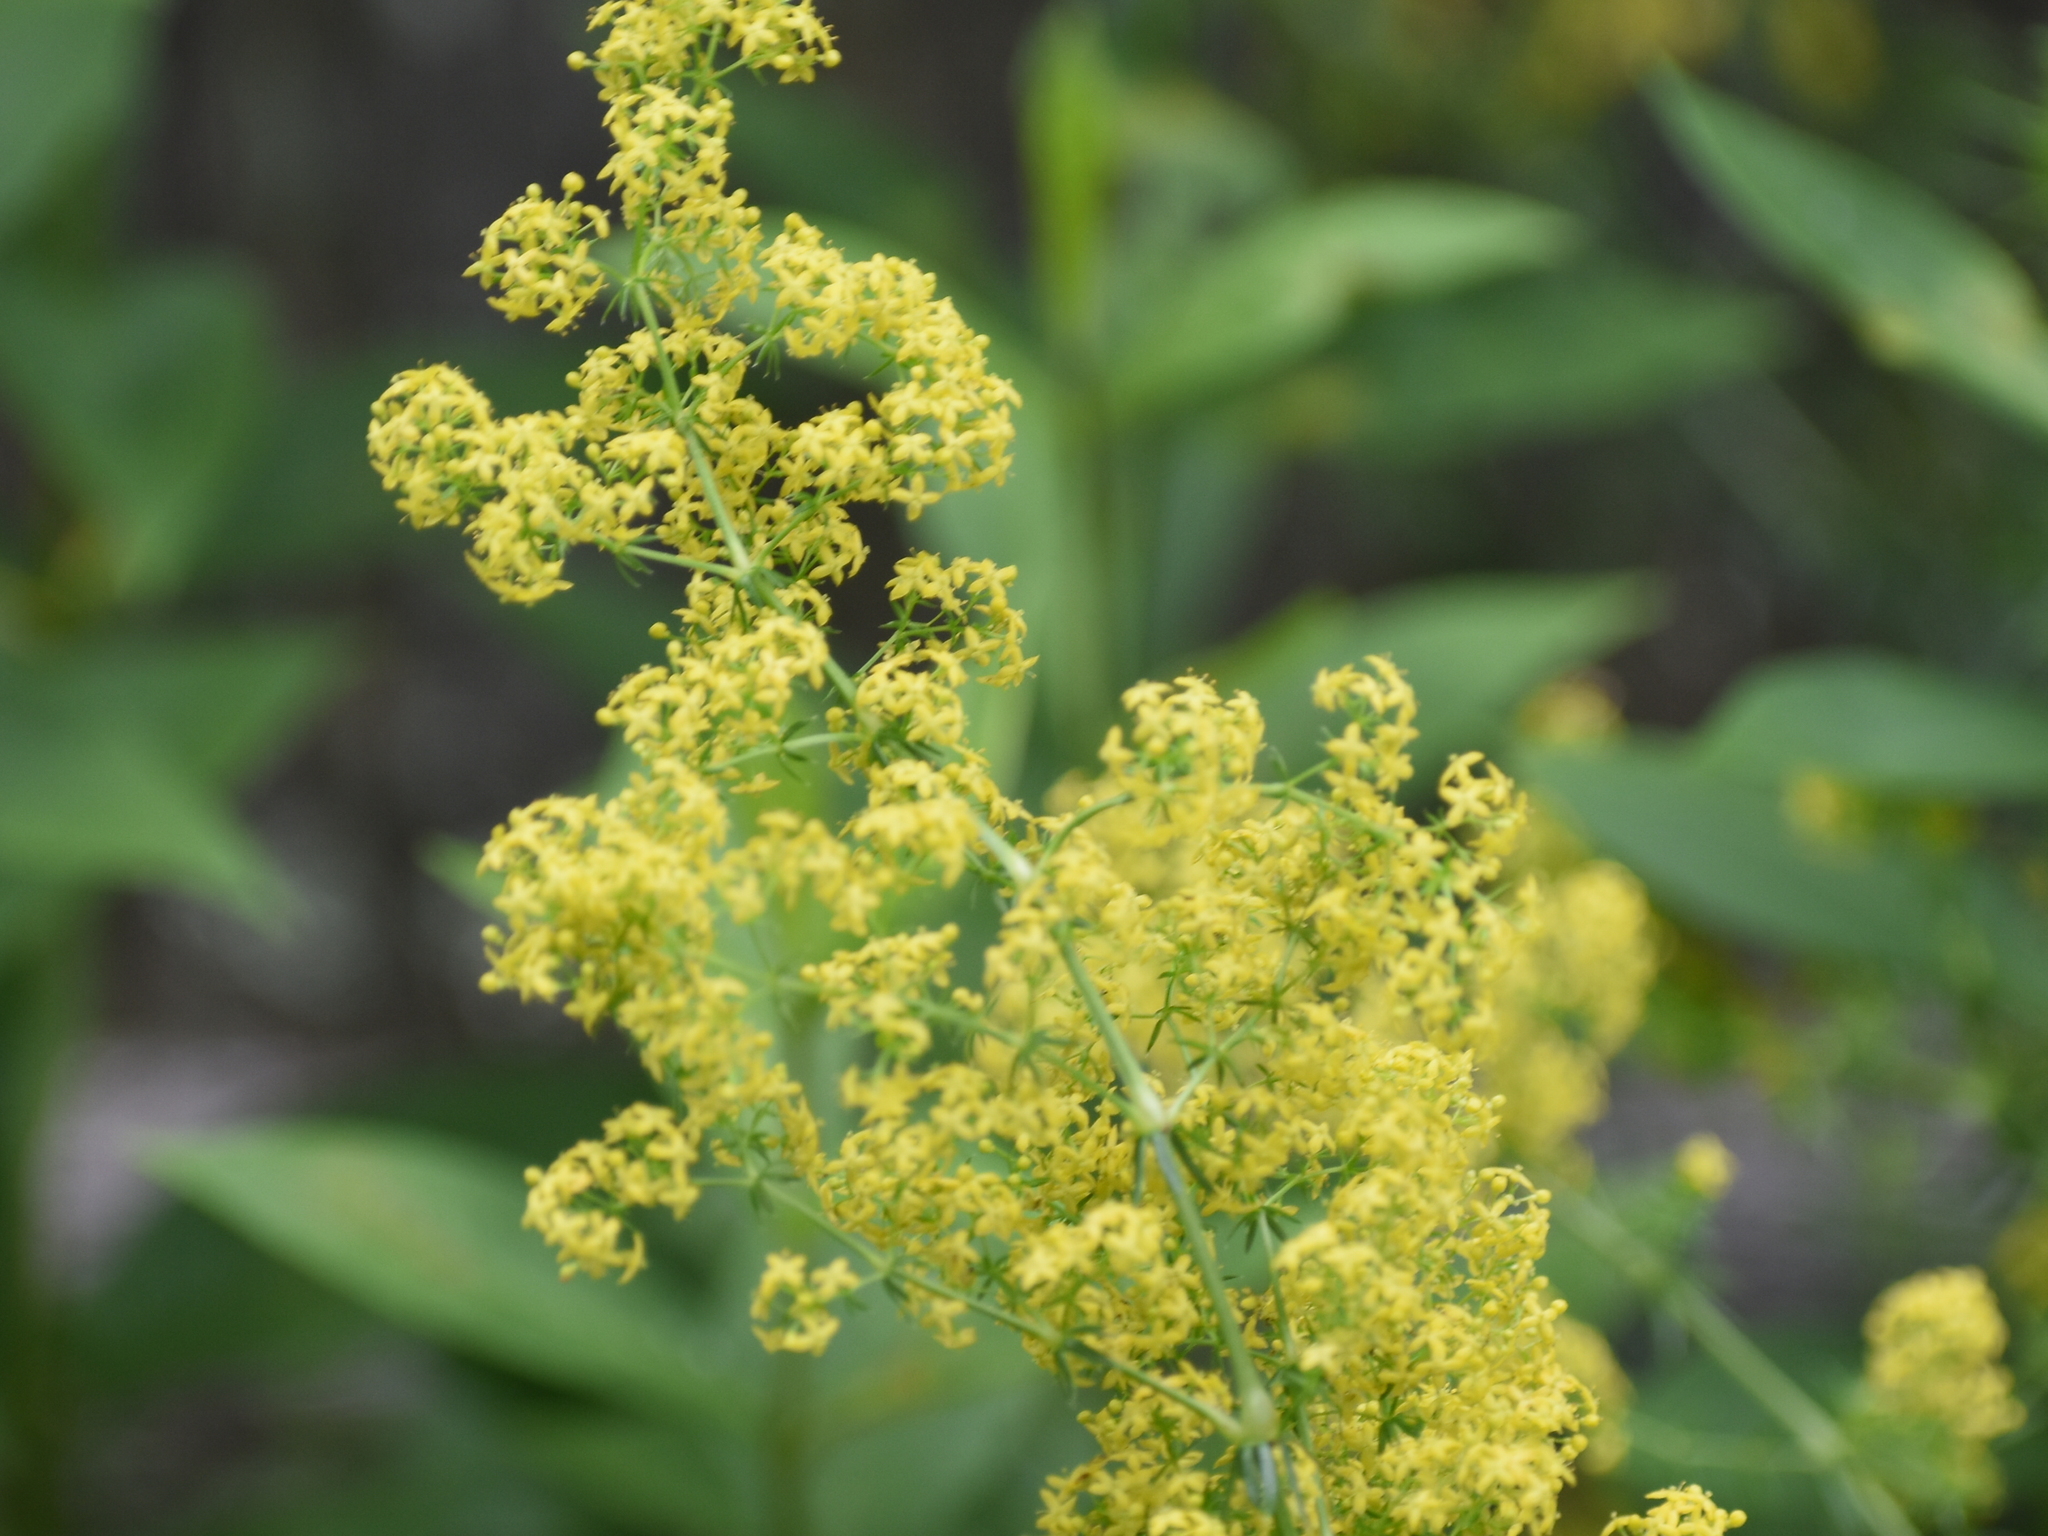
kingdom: Plantae
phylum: Tracheophyta
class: Magnoliopsida
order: Gentianales
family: Rubiaceae
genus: Galium
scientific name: Galium verum
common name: Lady's bedstraw
